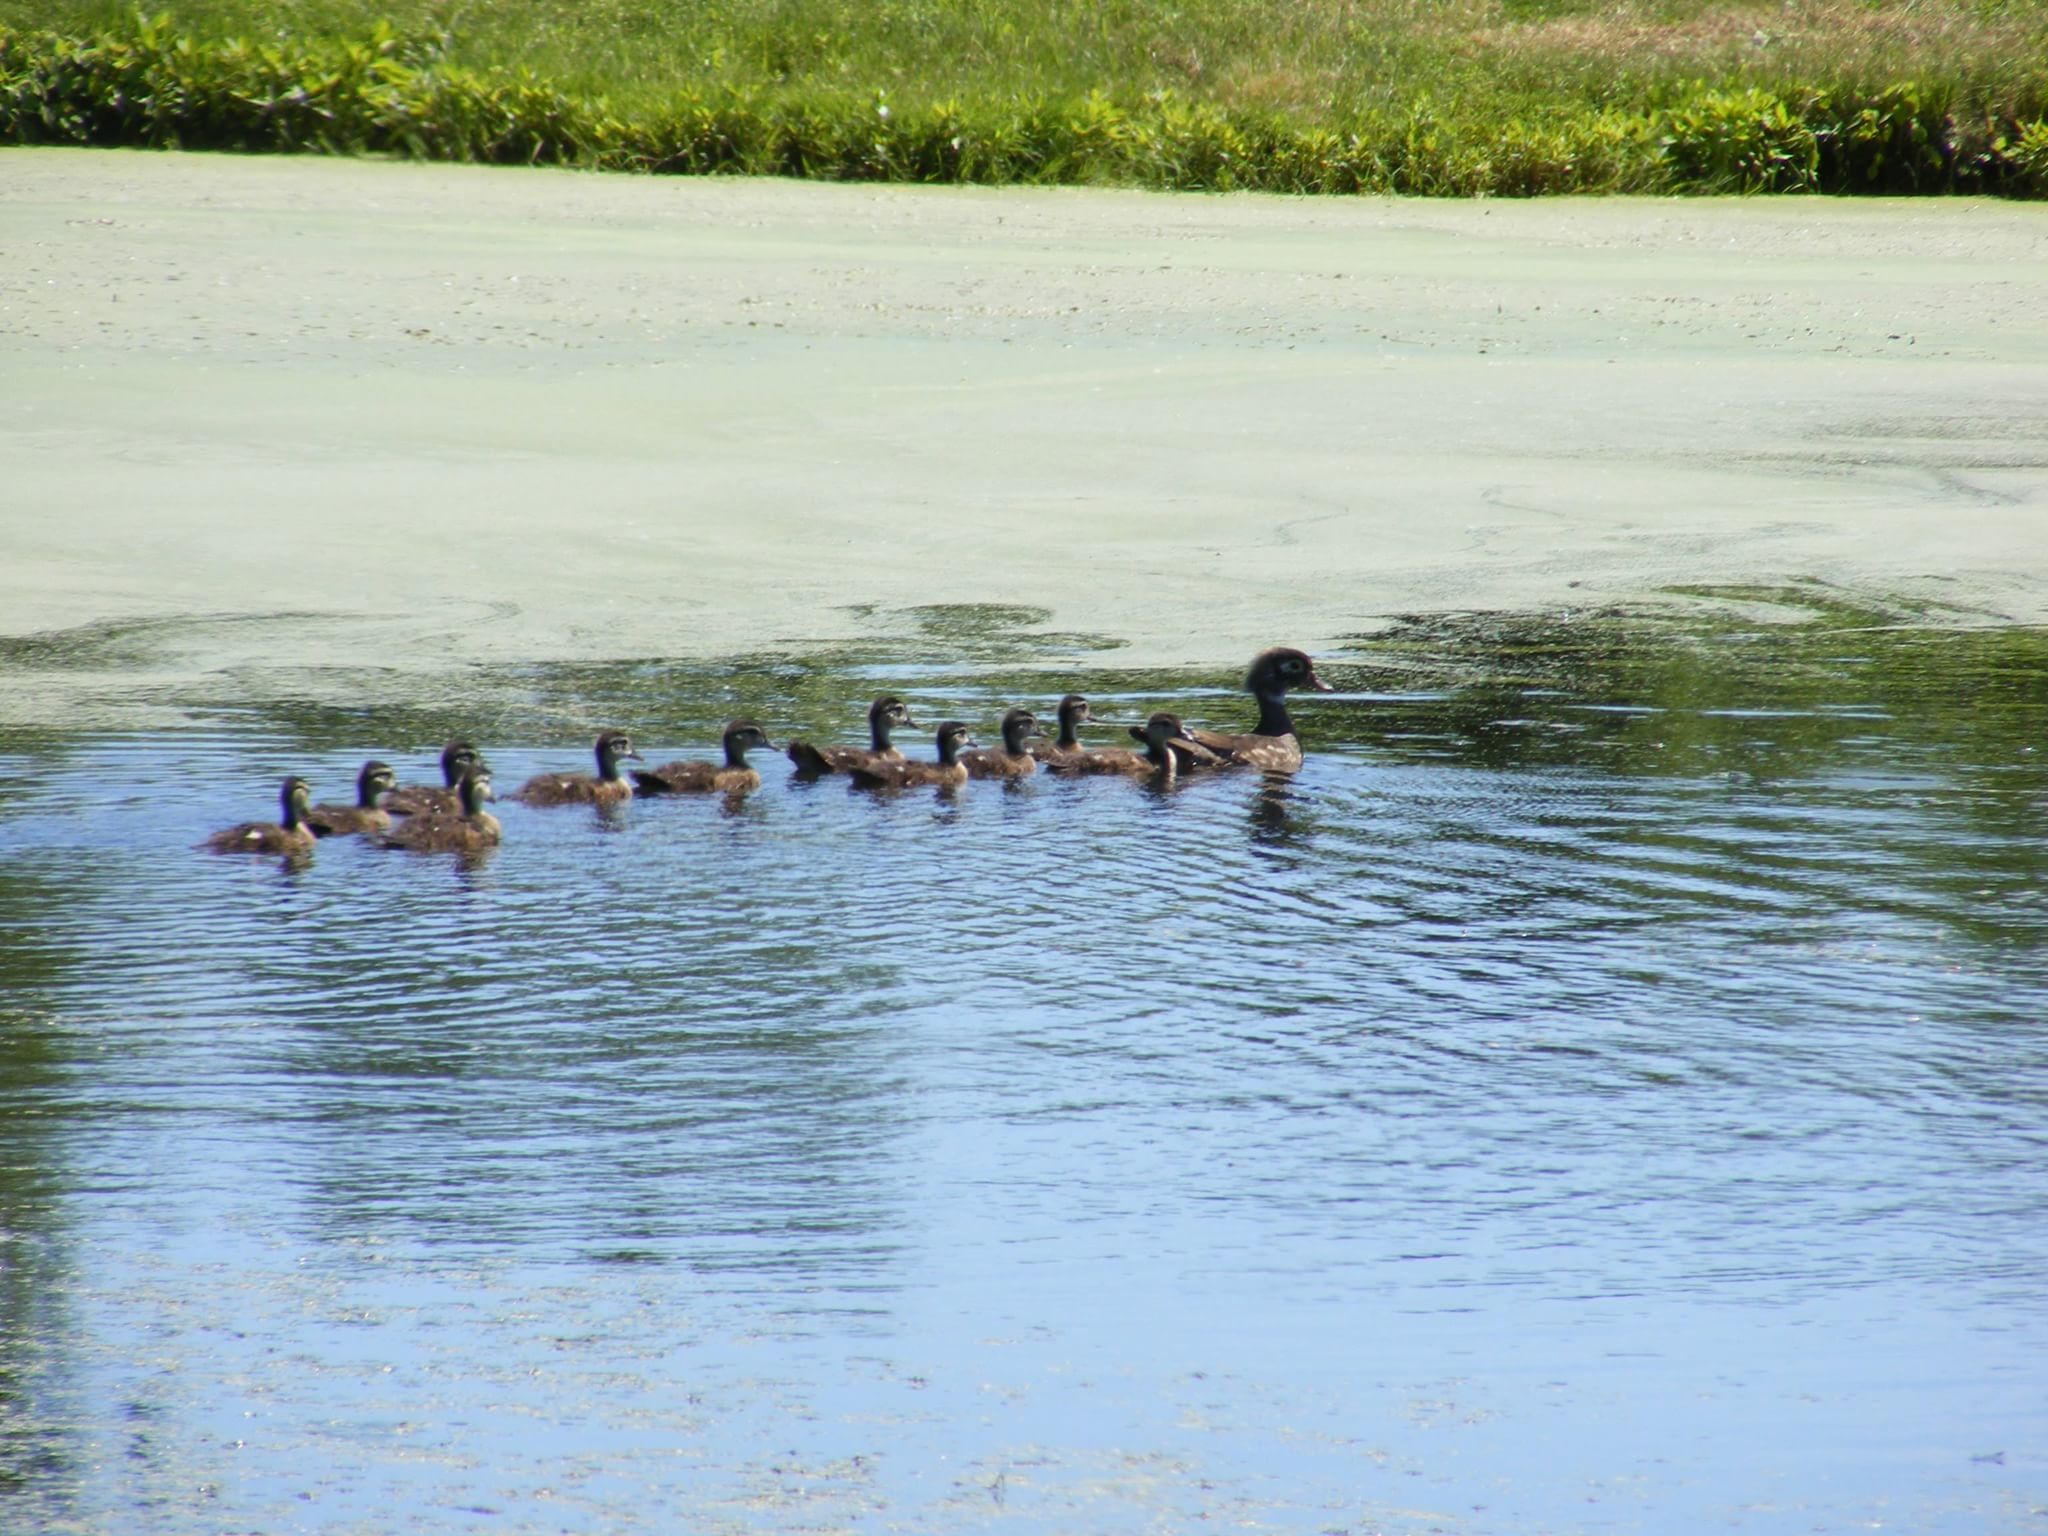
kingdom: Animalia
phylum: Chordata
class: Aves
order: Anseriformes
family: Anatidae
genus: Aix
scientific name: Aix sponsa
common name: Wood duck
